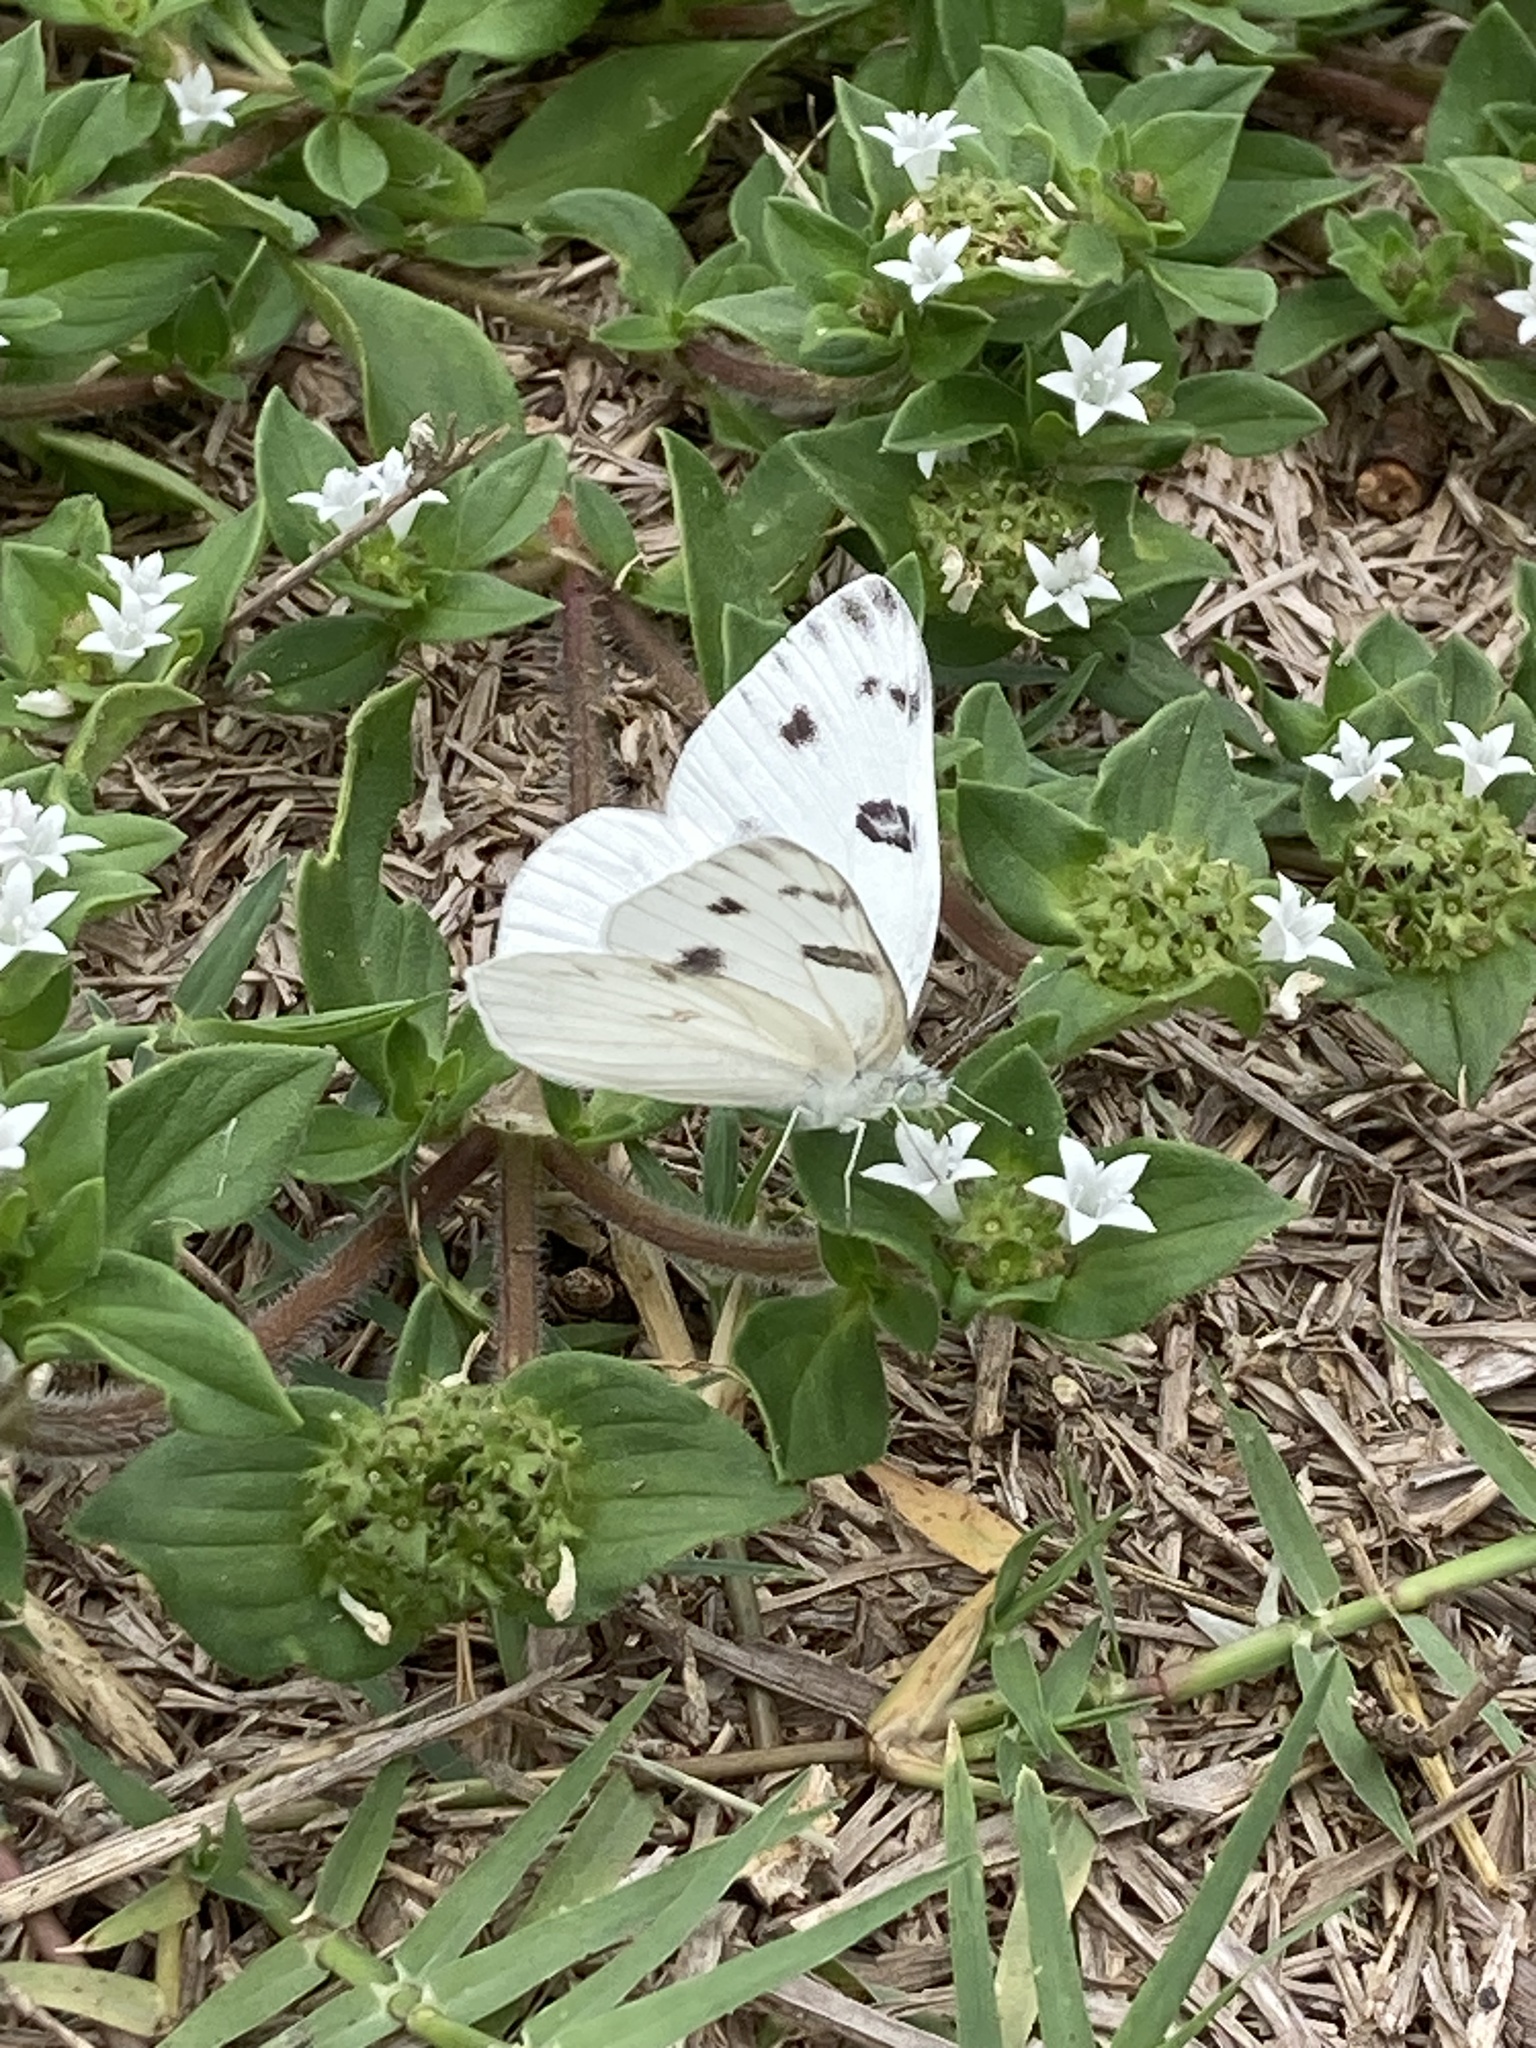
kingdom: Animalia
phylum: Arthropoda
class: Insecta
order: Lepidoptera
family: Pieridae
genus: Pontia
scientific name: Pontia protodice
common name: Checkered white
